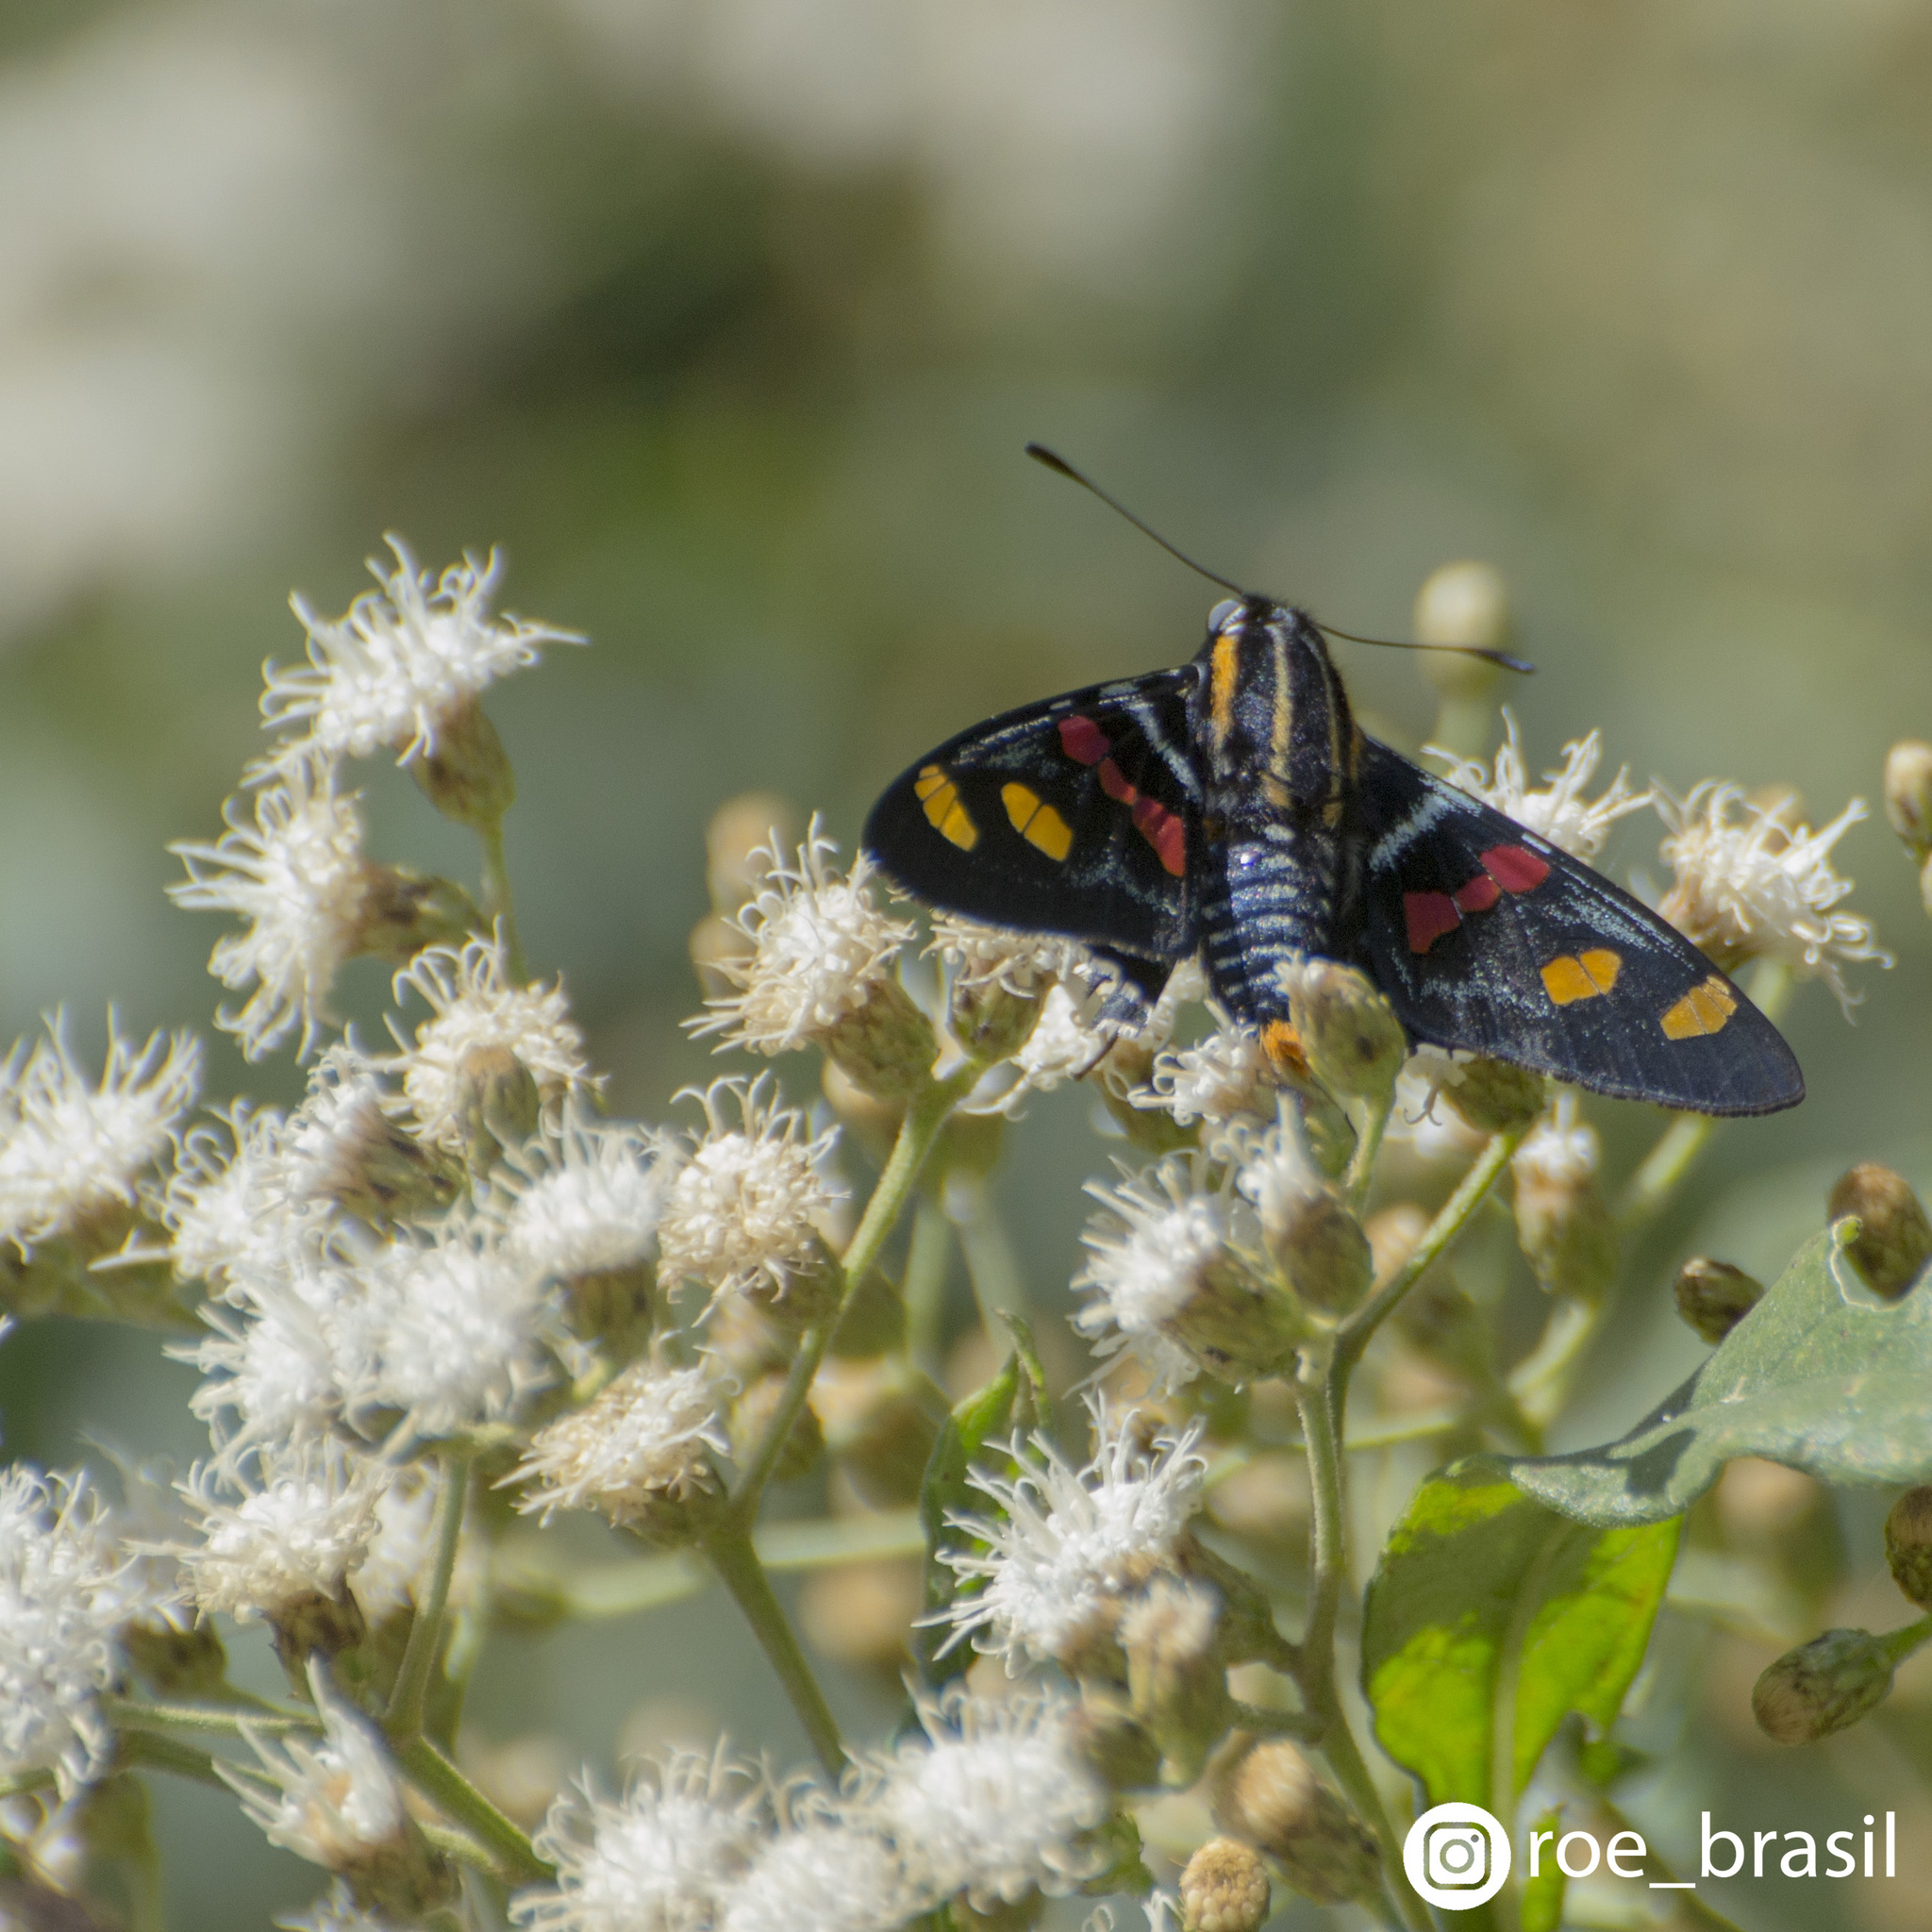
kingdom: Animalia
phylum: Arthropoda
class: Insecta
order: Lepidoptera
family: Hesperiidae
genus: Mimoniades
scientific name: Mimoniades versicolor
